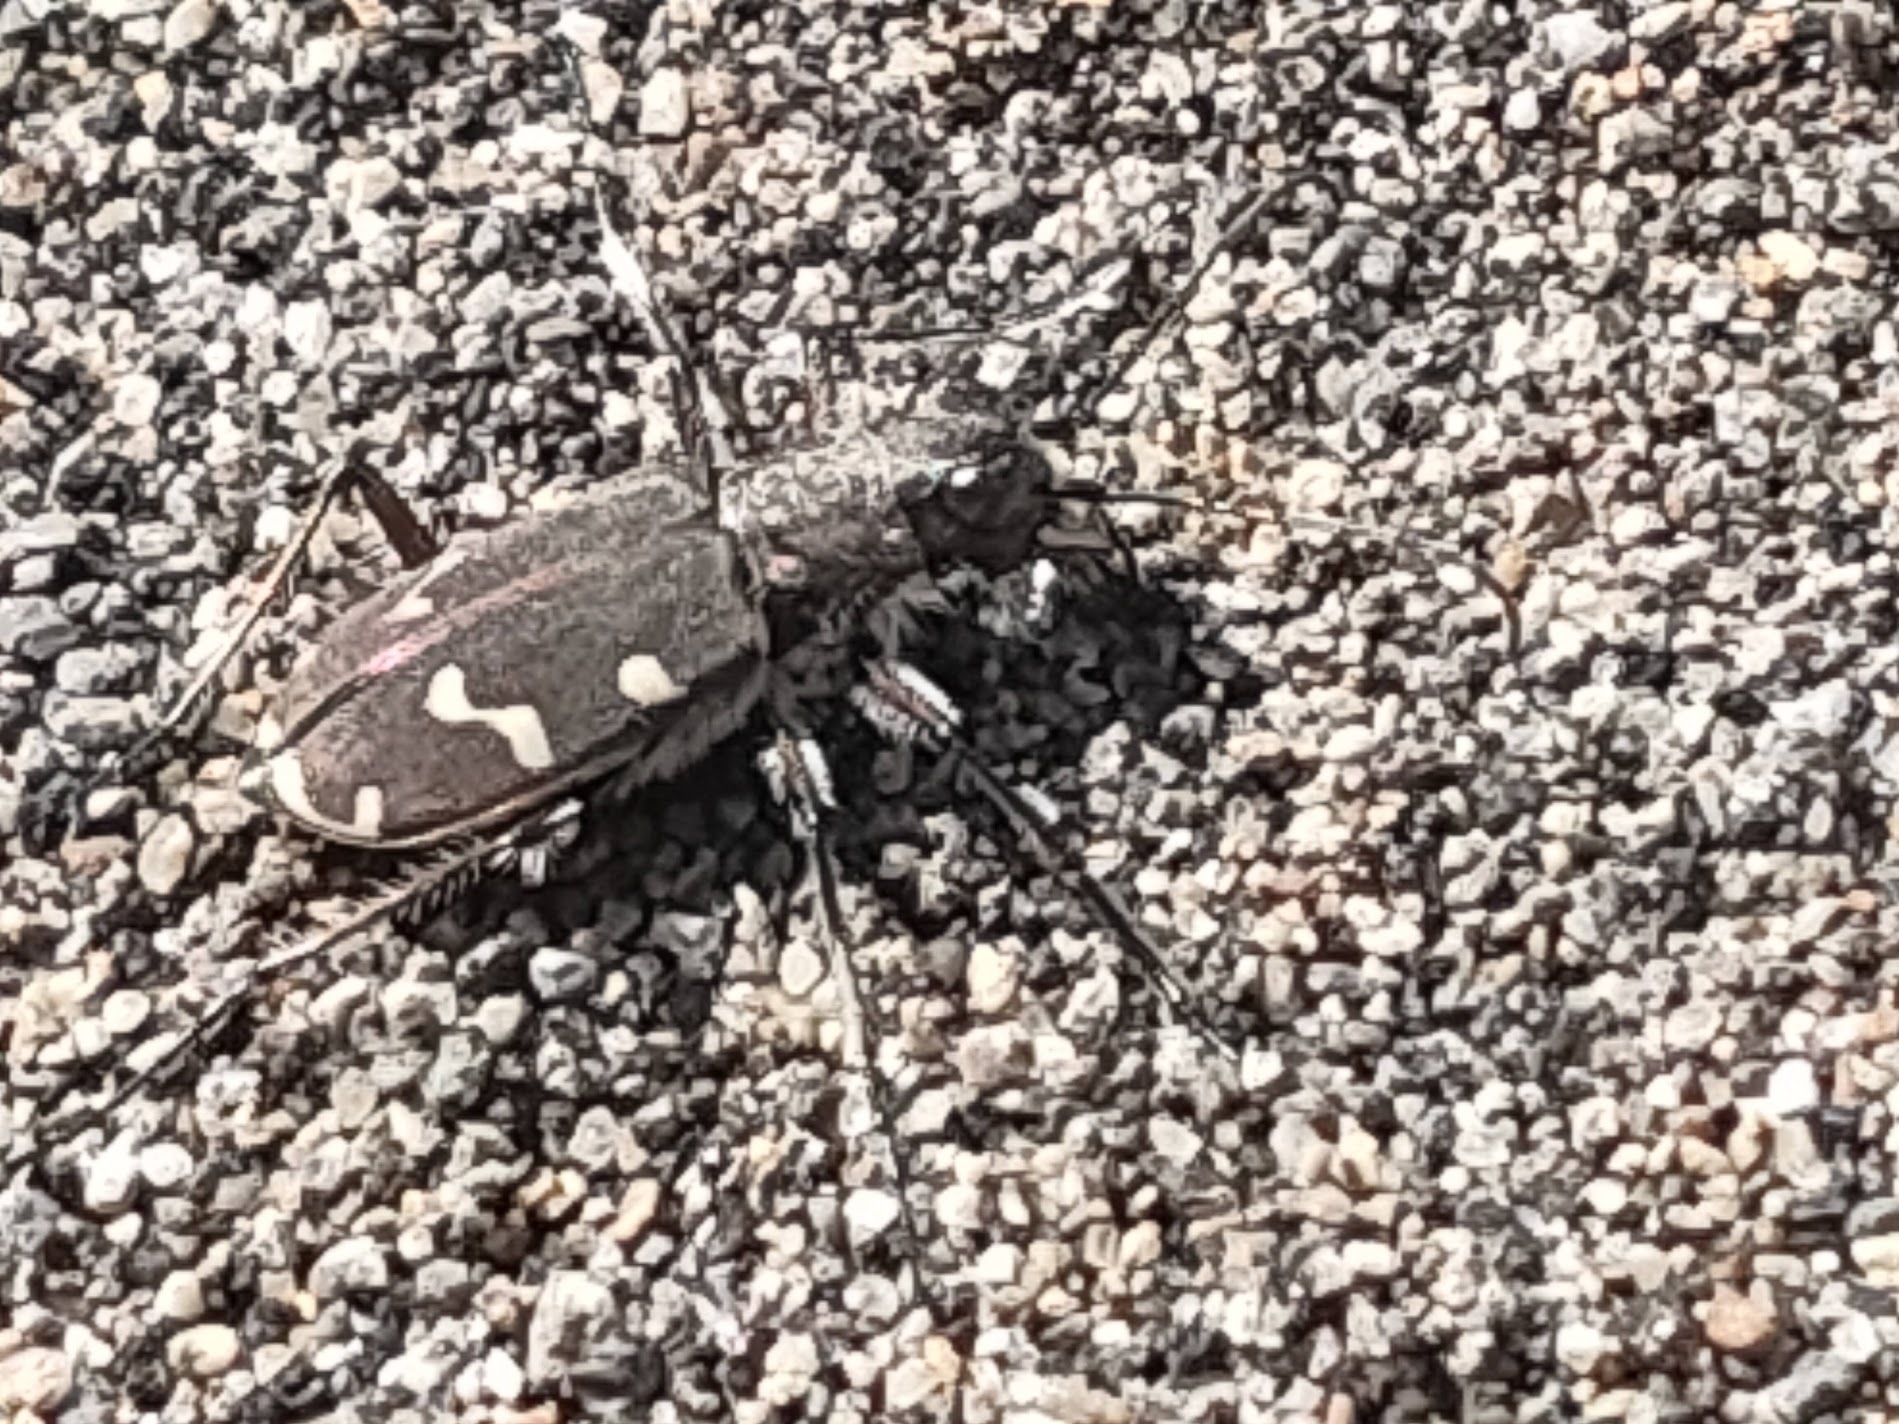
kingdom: Animalia
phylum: Arthropoda
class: Insecta
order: Coleoptera
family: Carabidae
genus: Cicindela
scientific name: Cicindela gemmata
